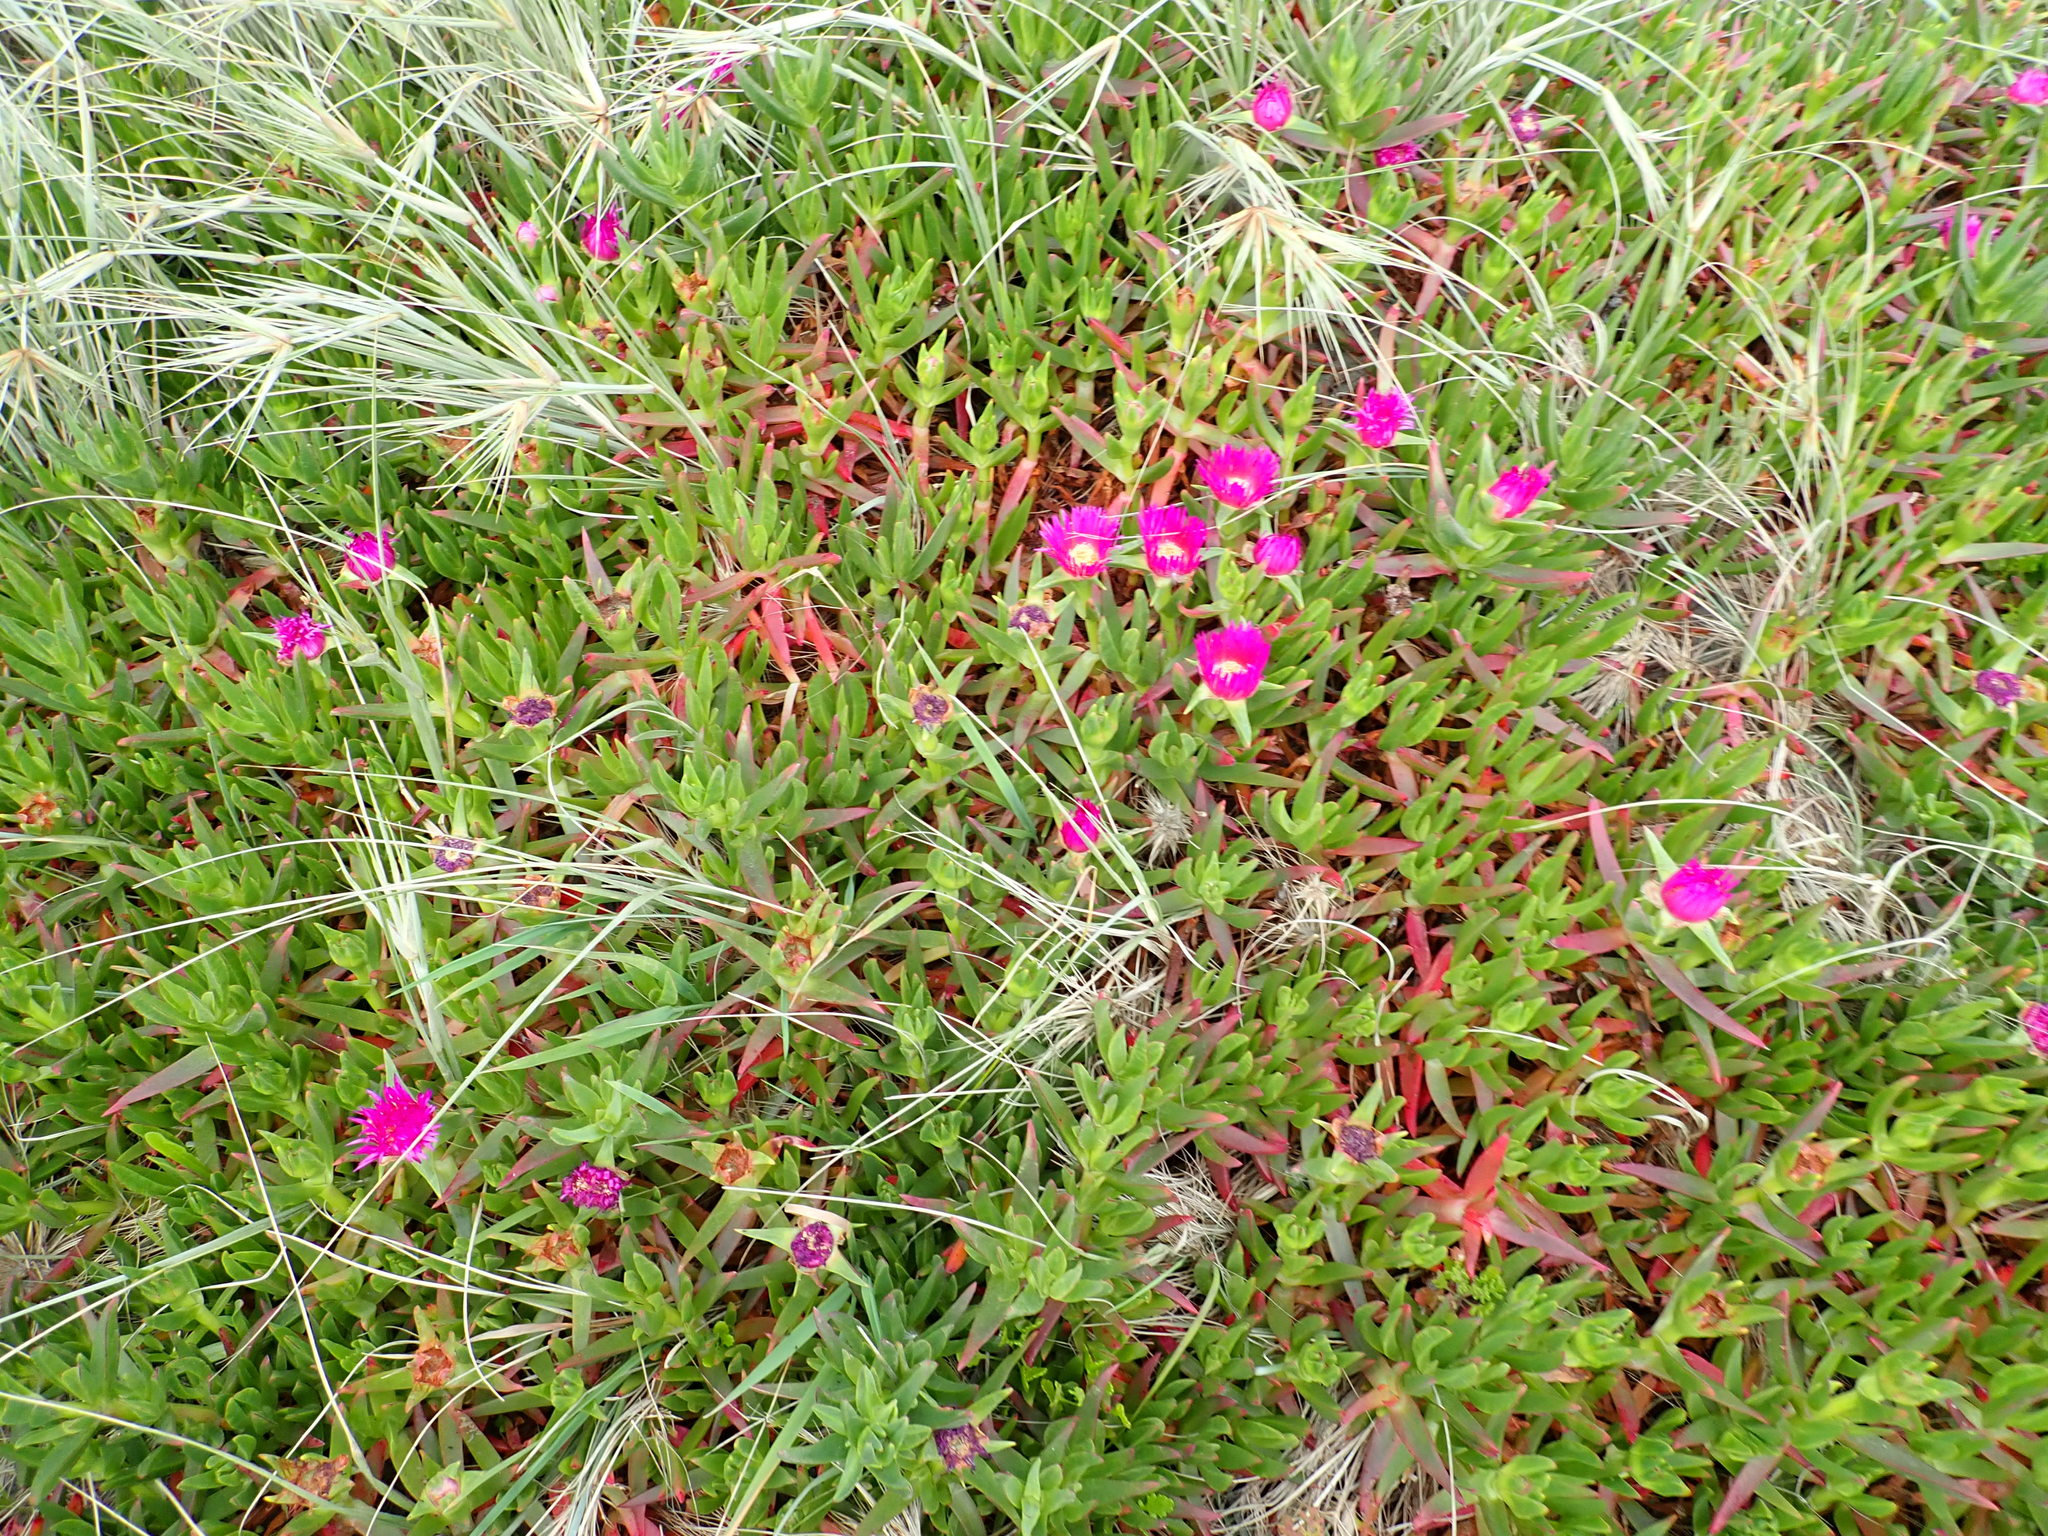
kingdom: Plantae
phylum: Tracheophyta
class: Magnoliopsida
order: Caryophyllales
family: Aizoaceae
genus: Carpobrotus
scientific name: Carpobrotus chilensis
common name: Sea fig
